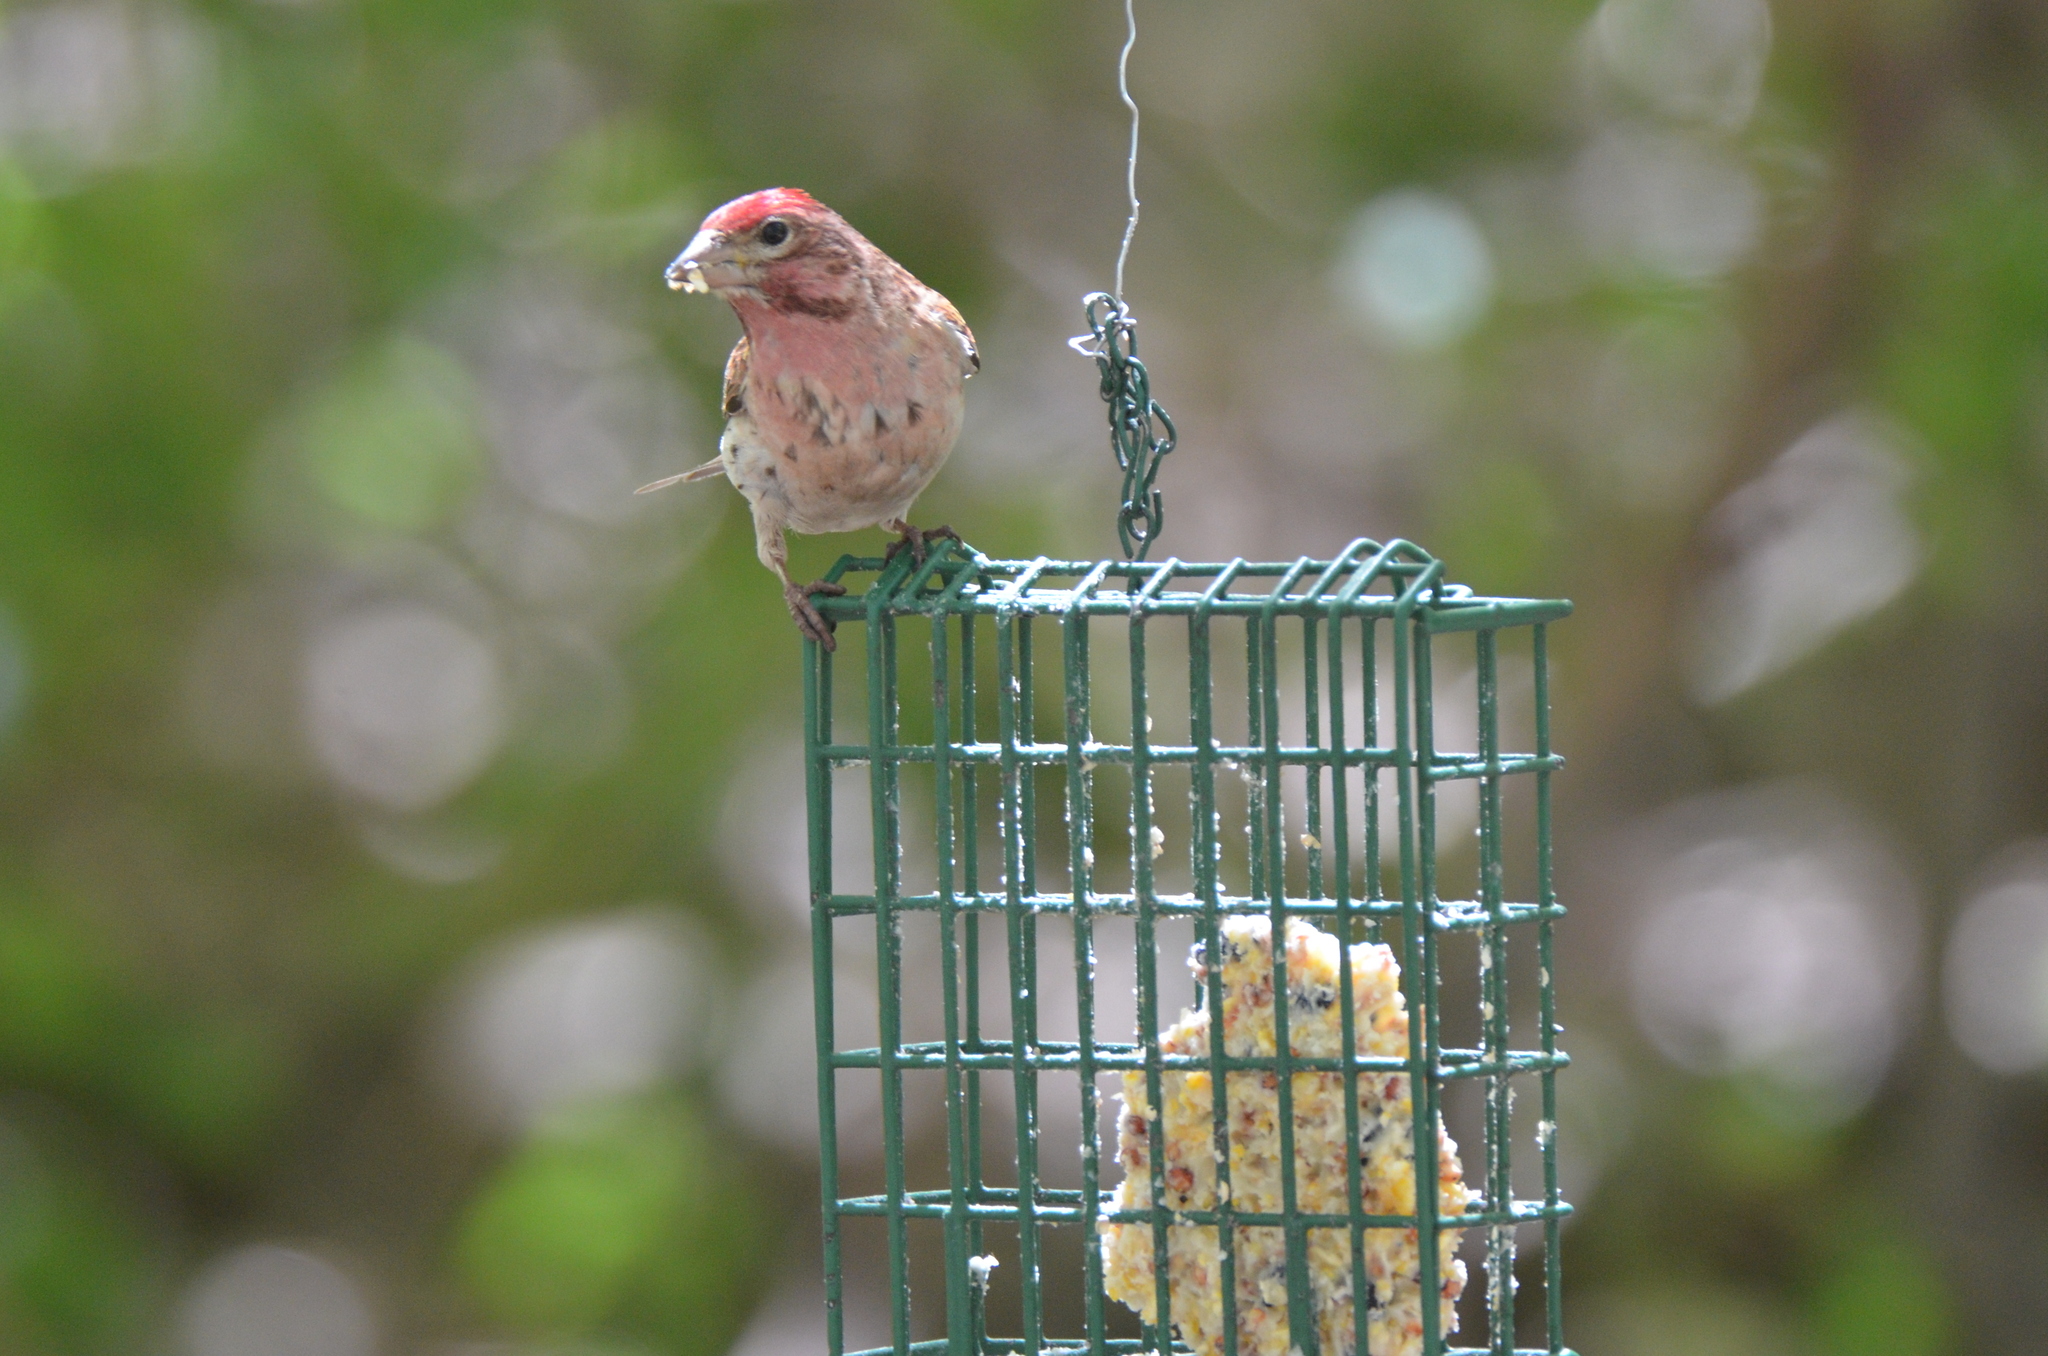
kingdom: Animalia
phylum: Chordata
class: Aves
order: Passeriformes
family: Fringillidae
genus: Haemorhous
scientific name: Haemorhous cassinii
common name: Cassin's finch
